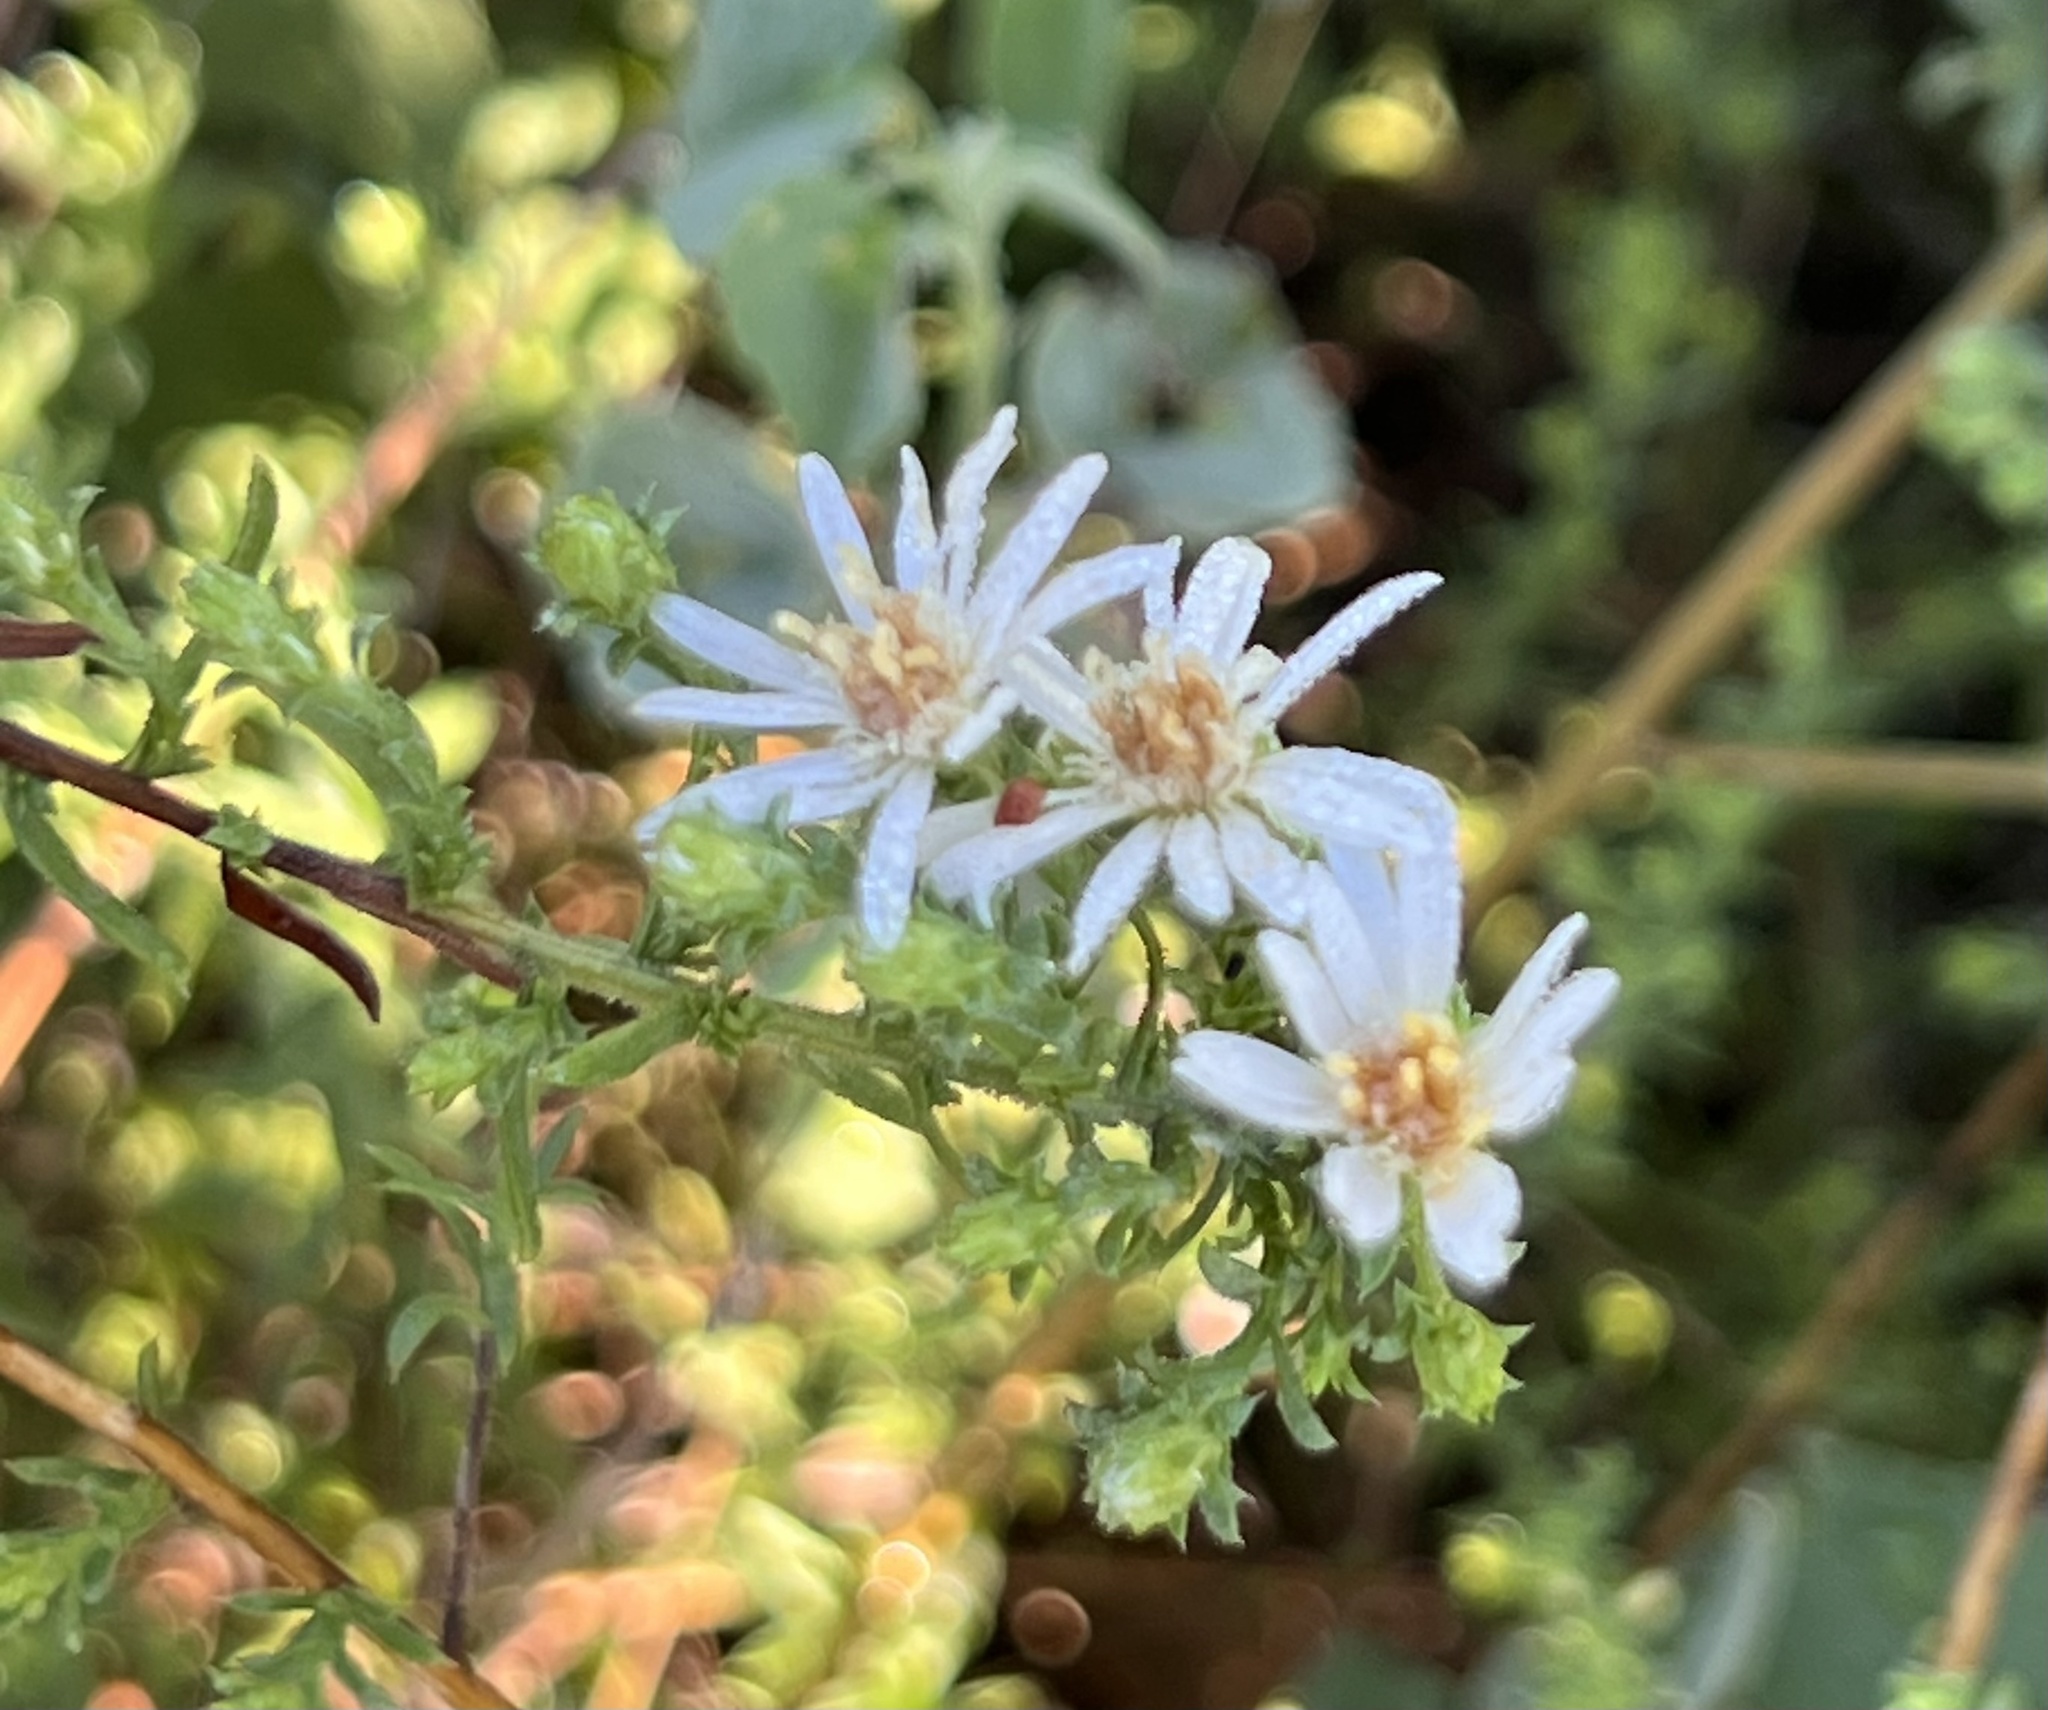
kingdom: Plantae
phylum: Tracheophyta
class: Magnoliopsida
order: Asterales
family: Asteraceae
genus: Symphyotrichum
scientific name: Symphyotrichum ericoides
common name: Heath aster
